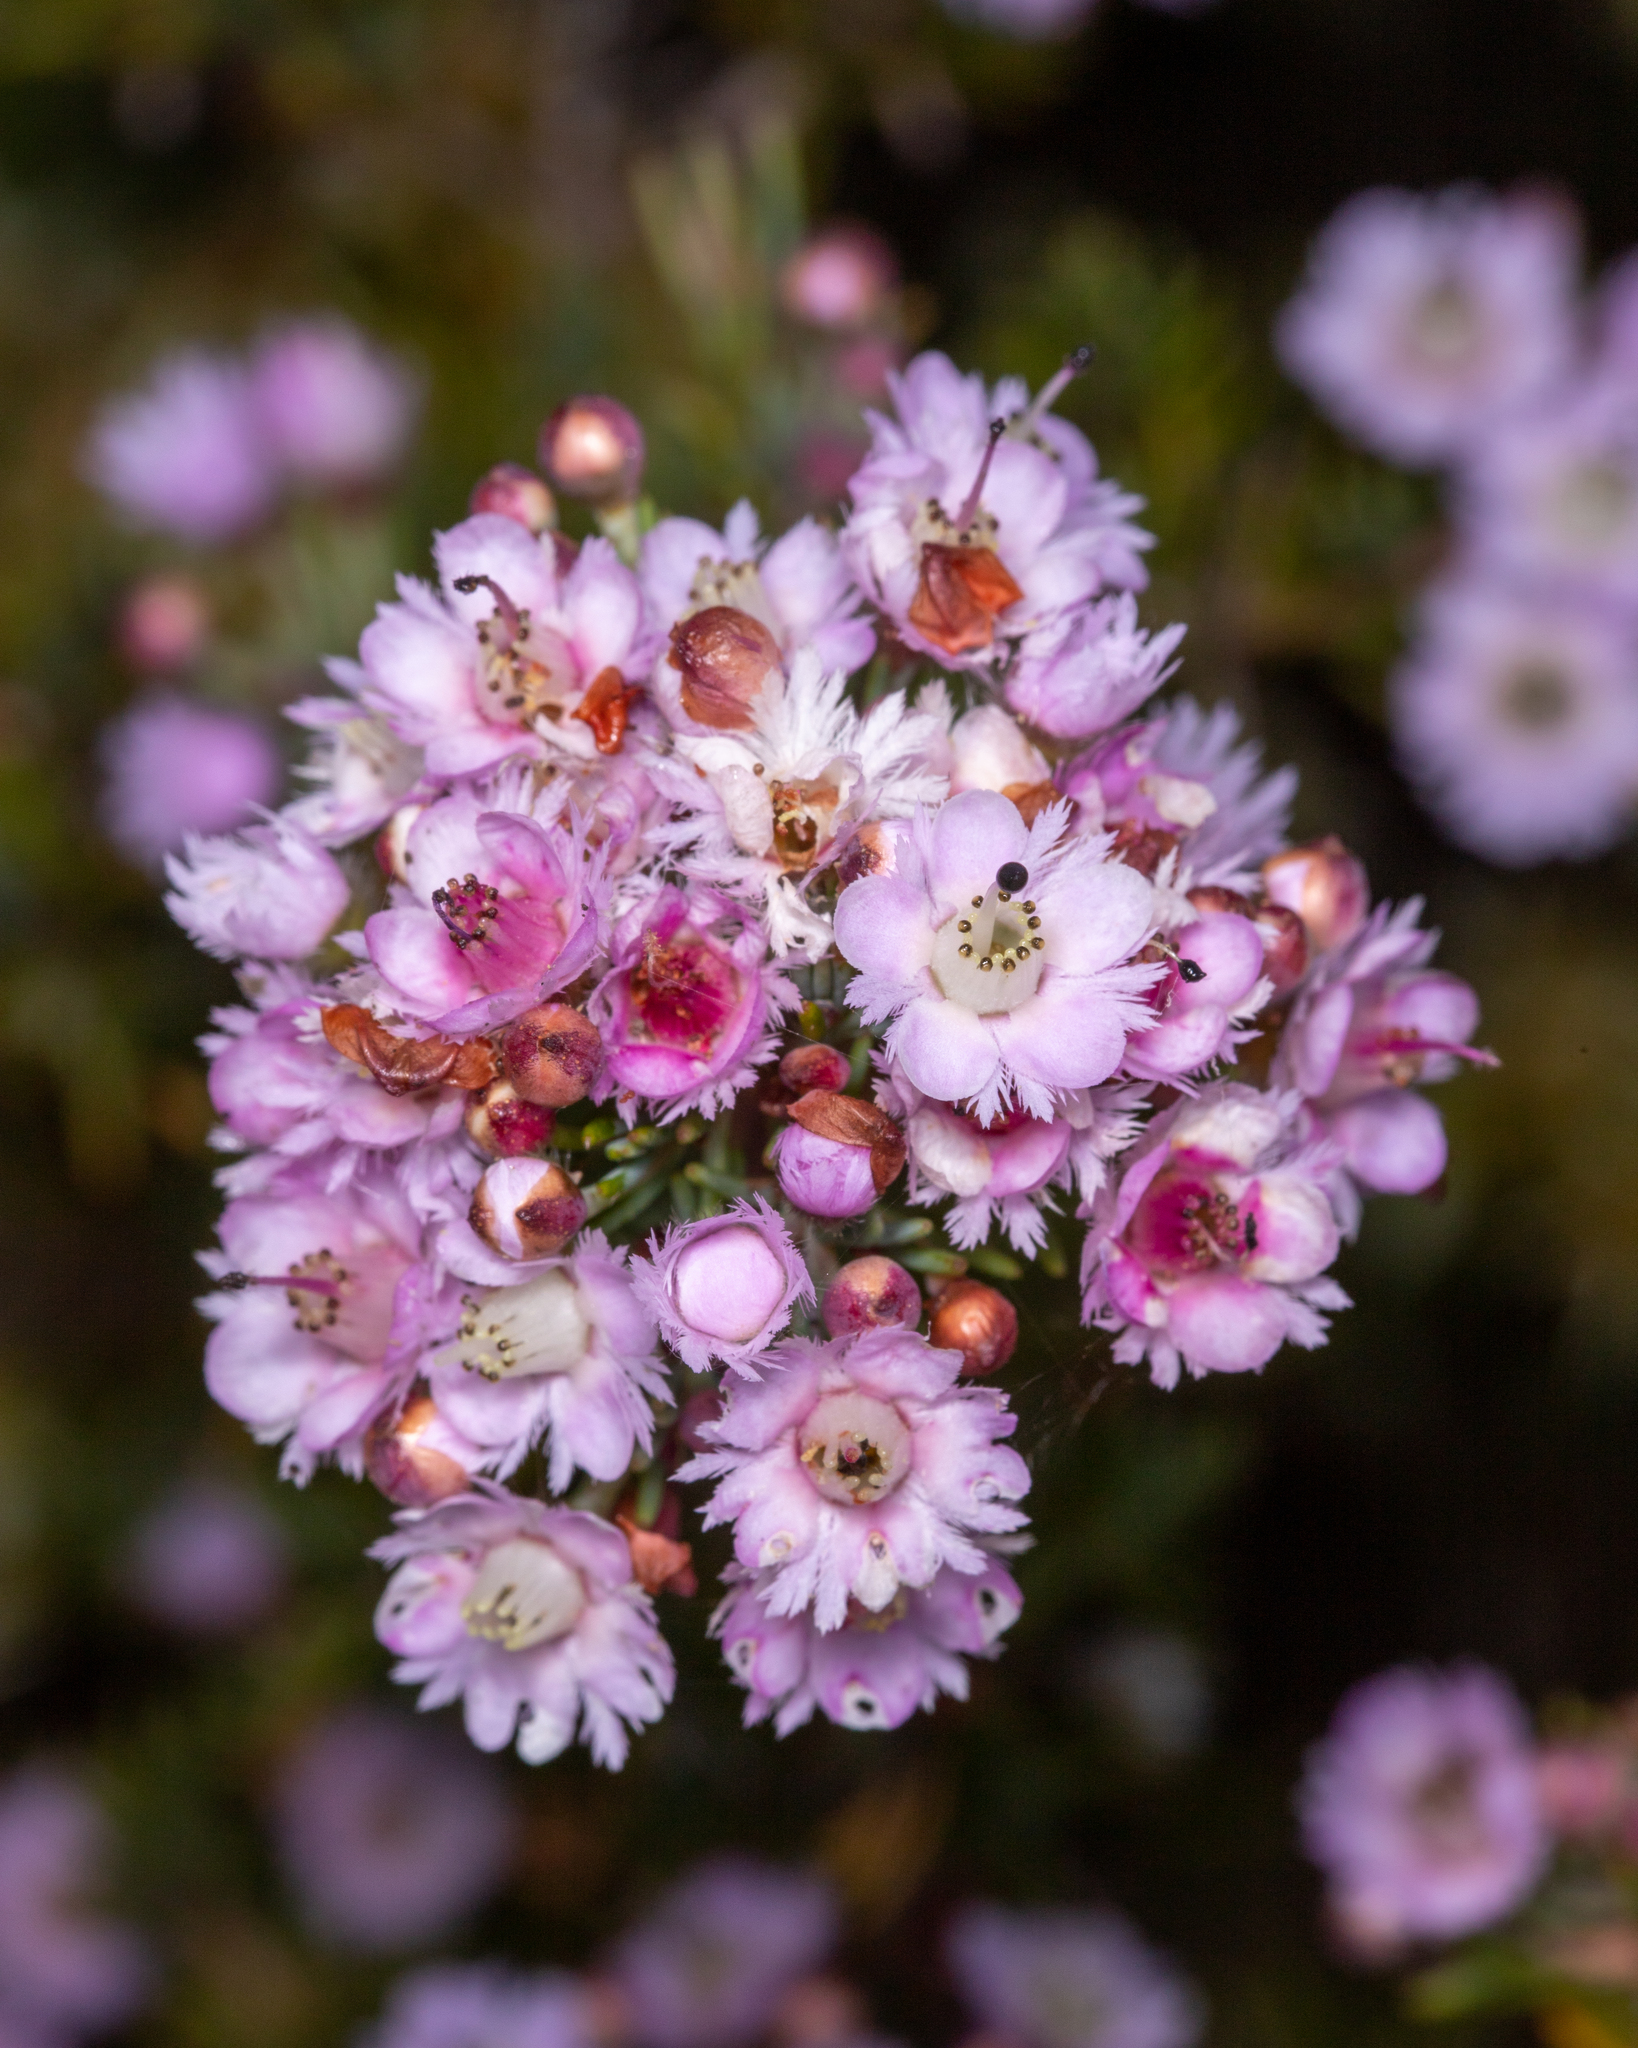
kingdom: Plantae
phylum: Tracheophyta
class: Magnoliopsida
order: Myrtales
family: Myrtaceae
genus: Verticordia
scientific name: Verticordia plumosa
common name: Plume feather-flower
